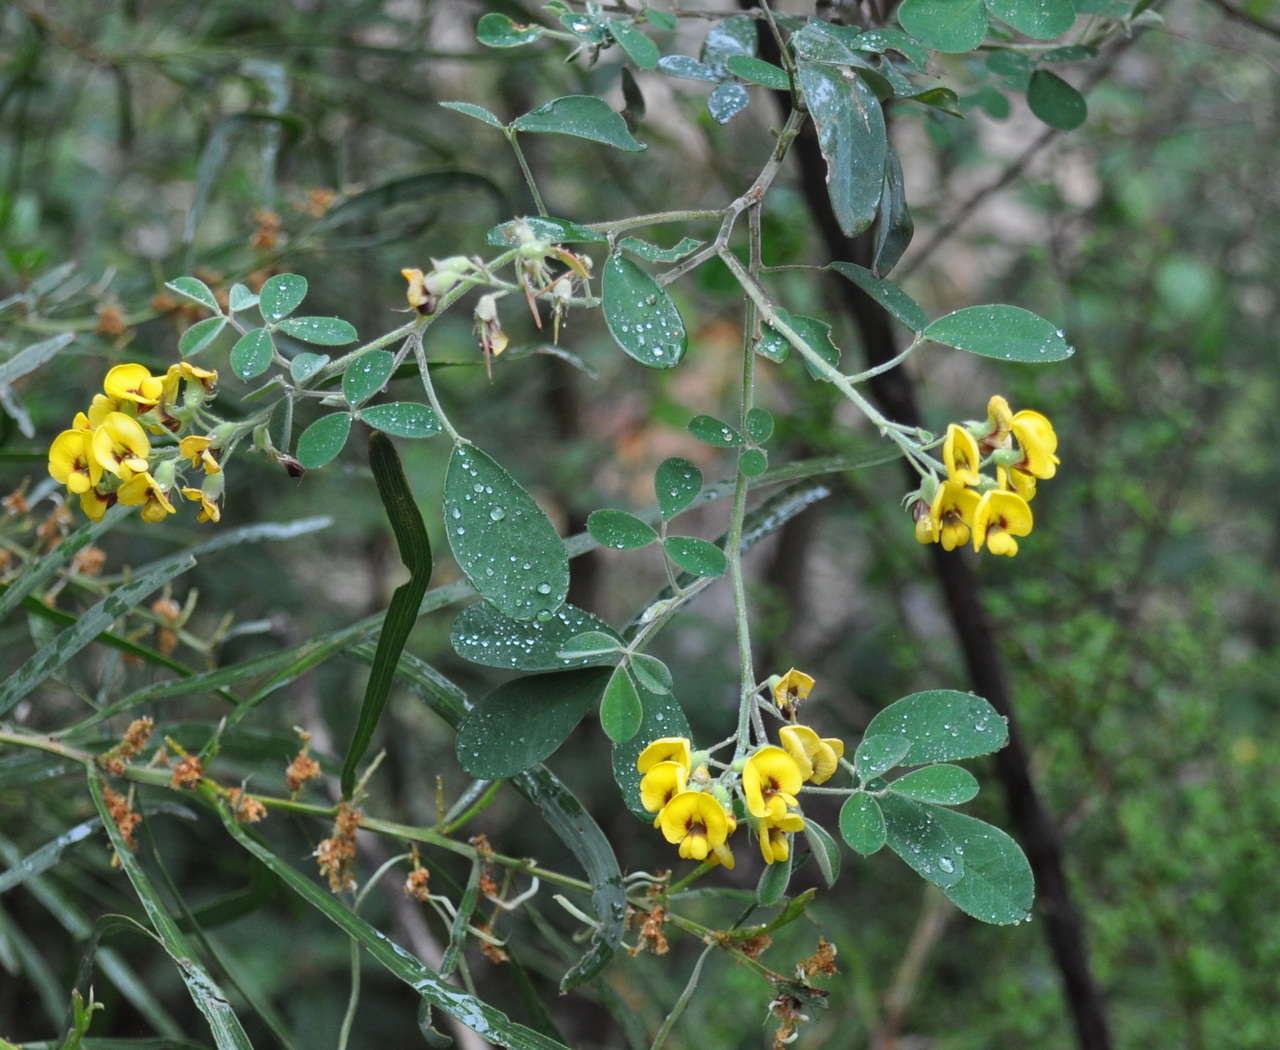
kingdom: Plantae
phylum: Tracheophyta
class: Magnoliopsida
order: Fabales
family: Fabaceae
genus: Goodia
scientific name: Goodia lotifolia
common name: Cloverleaf-poison
